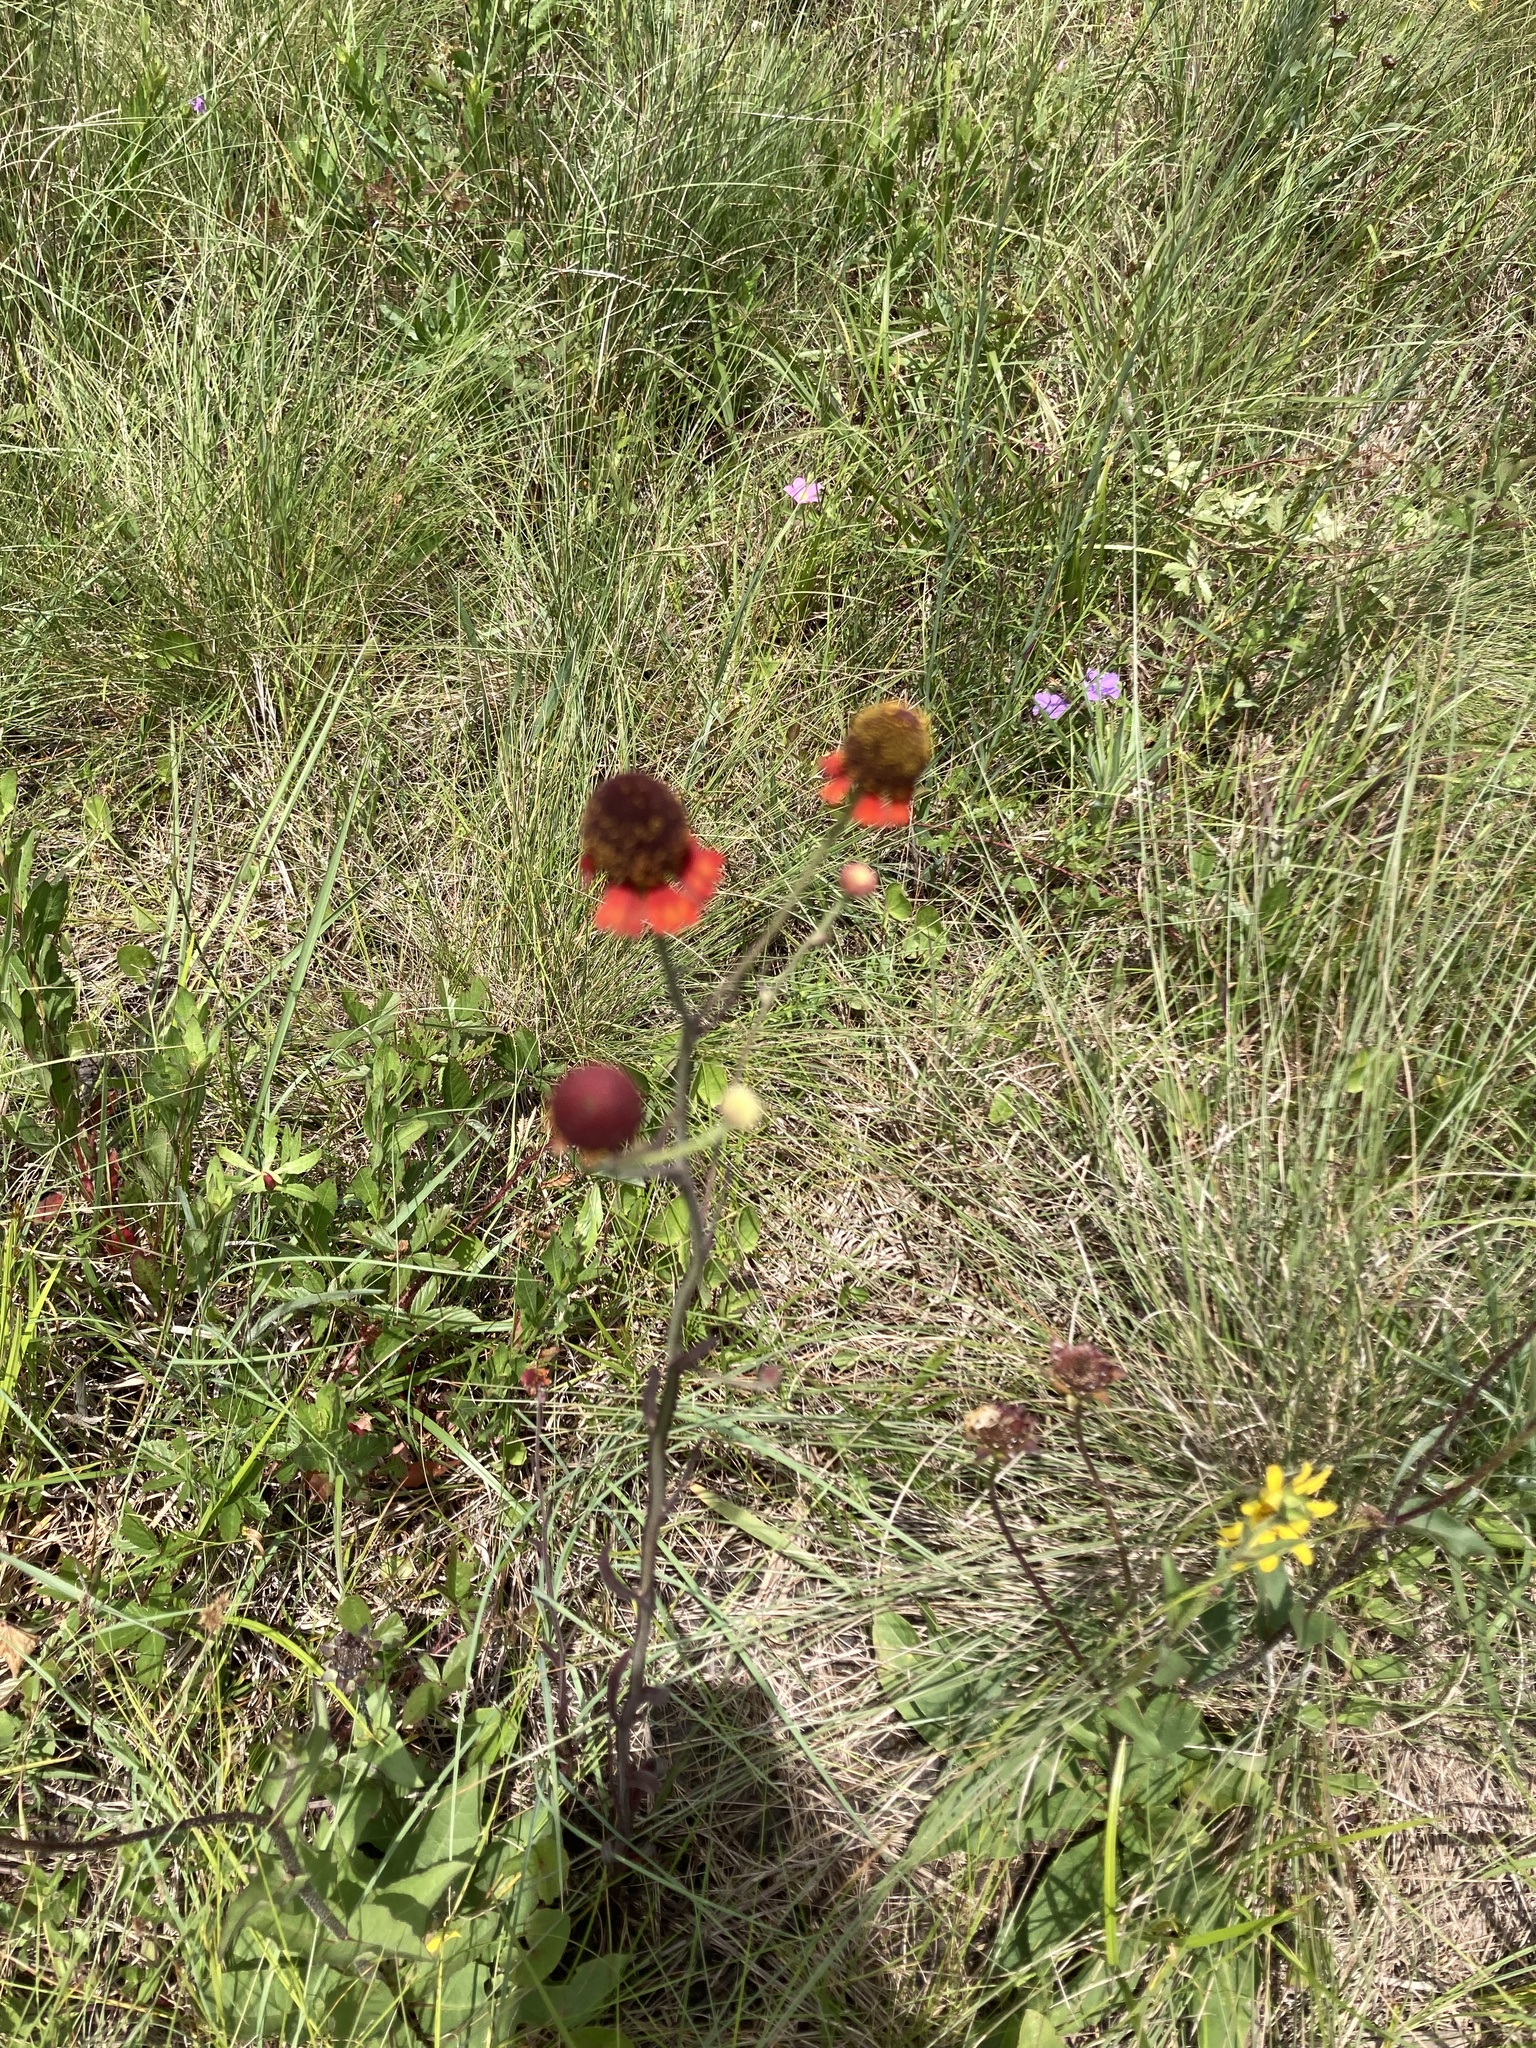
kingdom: Plantae
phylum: Tracheophyta
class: Magnoliopsida
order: Asterales
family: Asteraceae
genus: Helenium
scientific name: Helenium flexuosum
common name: Naked-flowered sneezeweed
